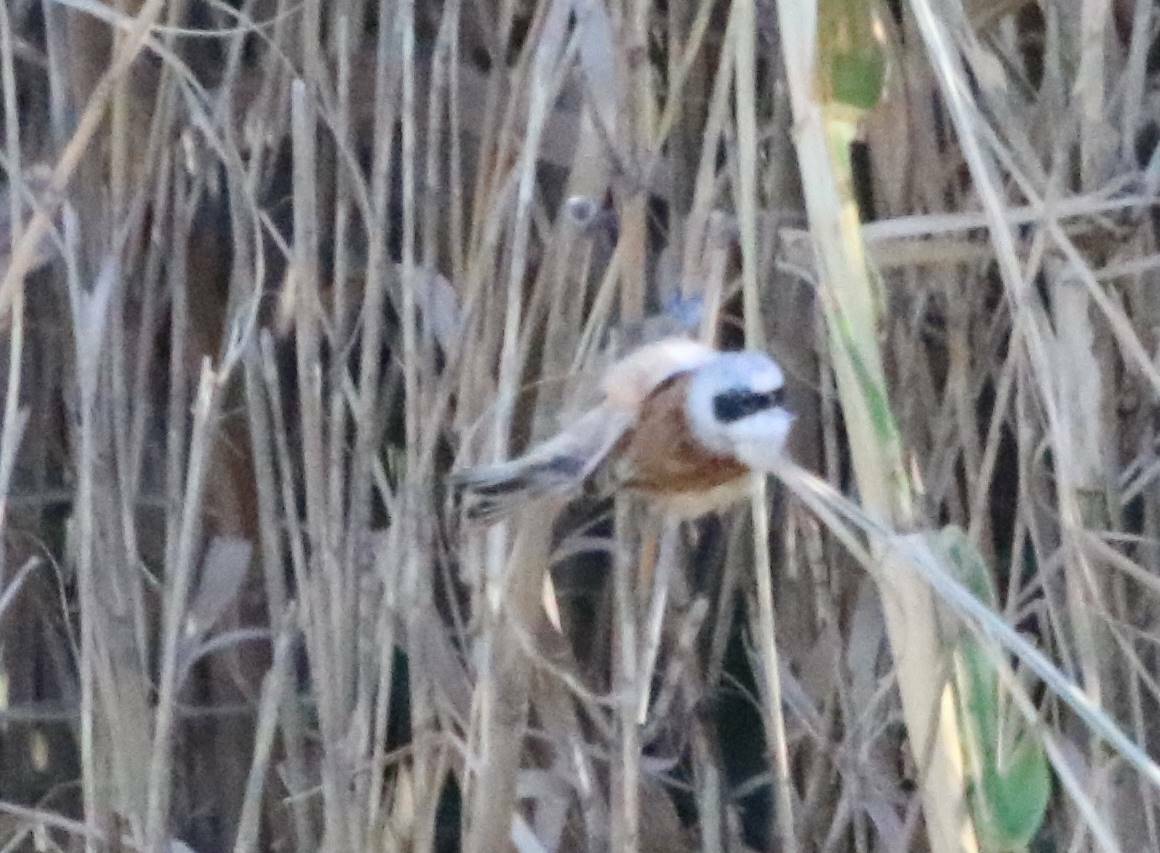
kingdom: Animalia
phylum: Chordata
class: Aves
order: Passeriformes
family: Remizidae
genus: Remiz
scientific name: Remiz pendulinus
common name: Eurasian penduline tit
